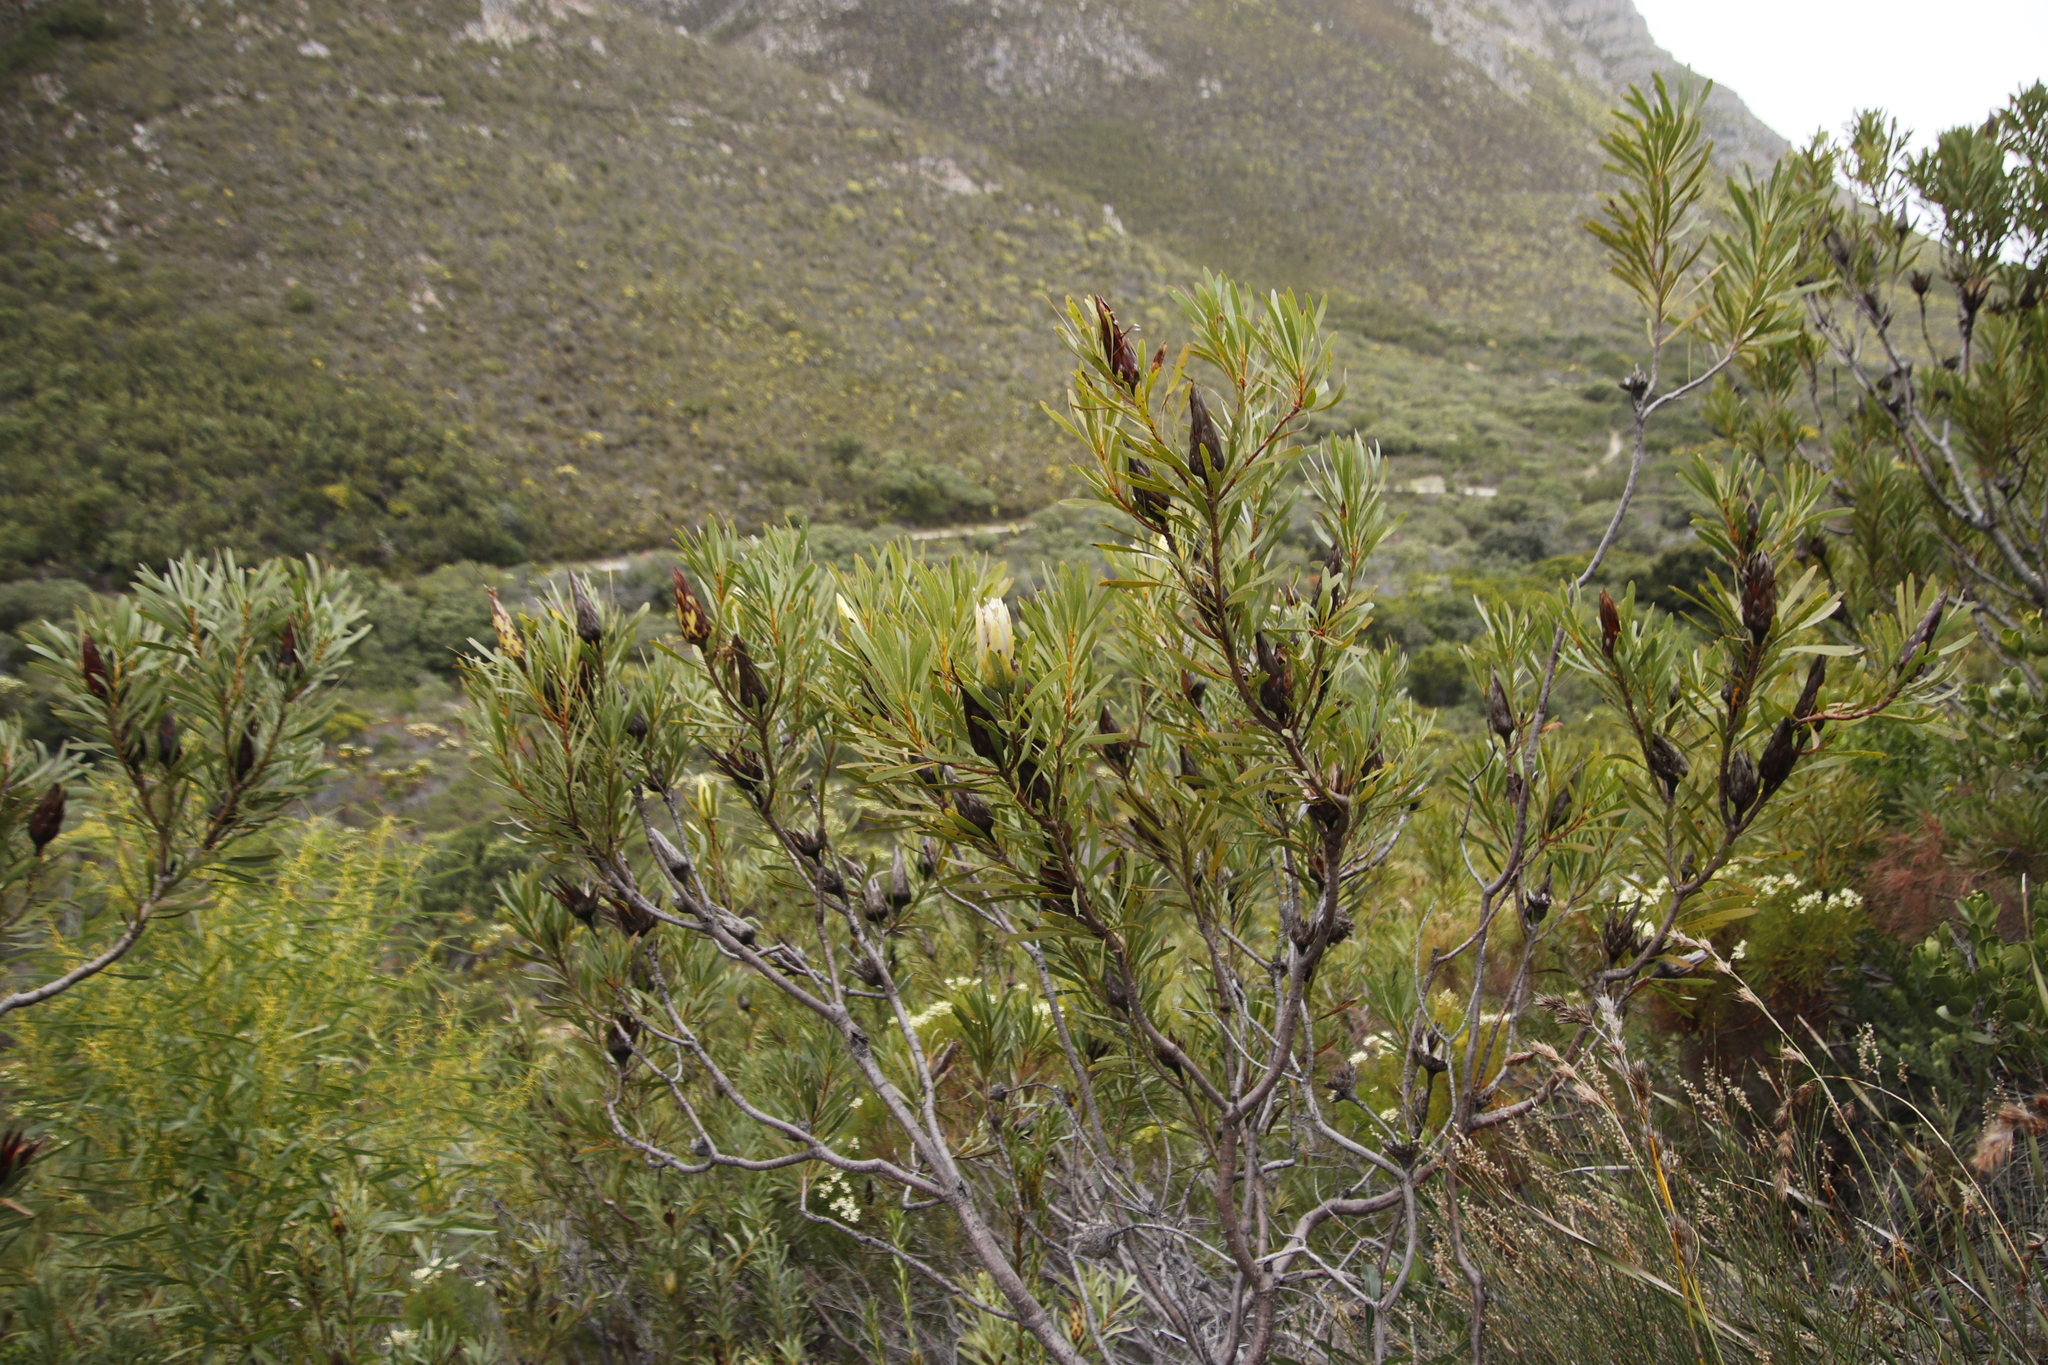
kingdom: Plantae
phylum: Tracheophyta
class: Magnoliopsida
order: Proteales
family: Proteaceae
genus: Protea
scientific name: Protea repens
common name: Sugarbush
